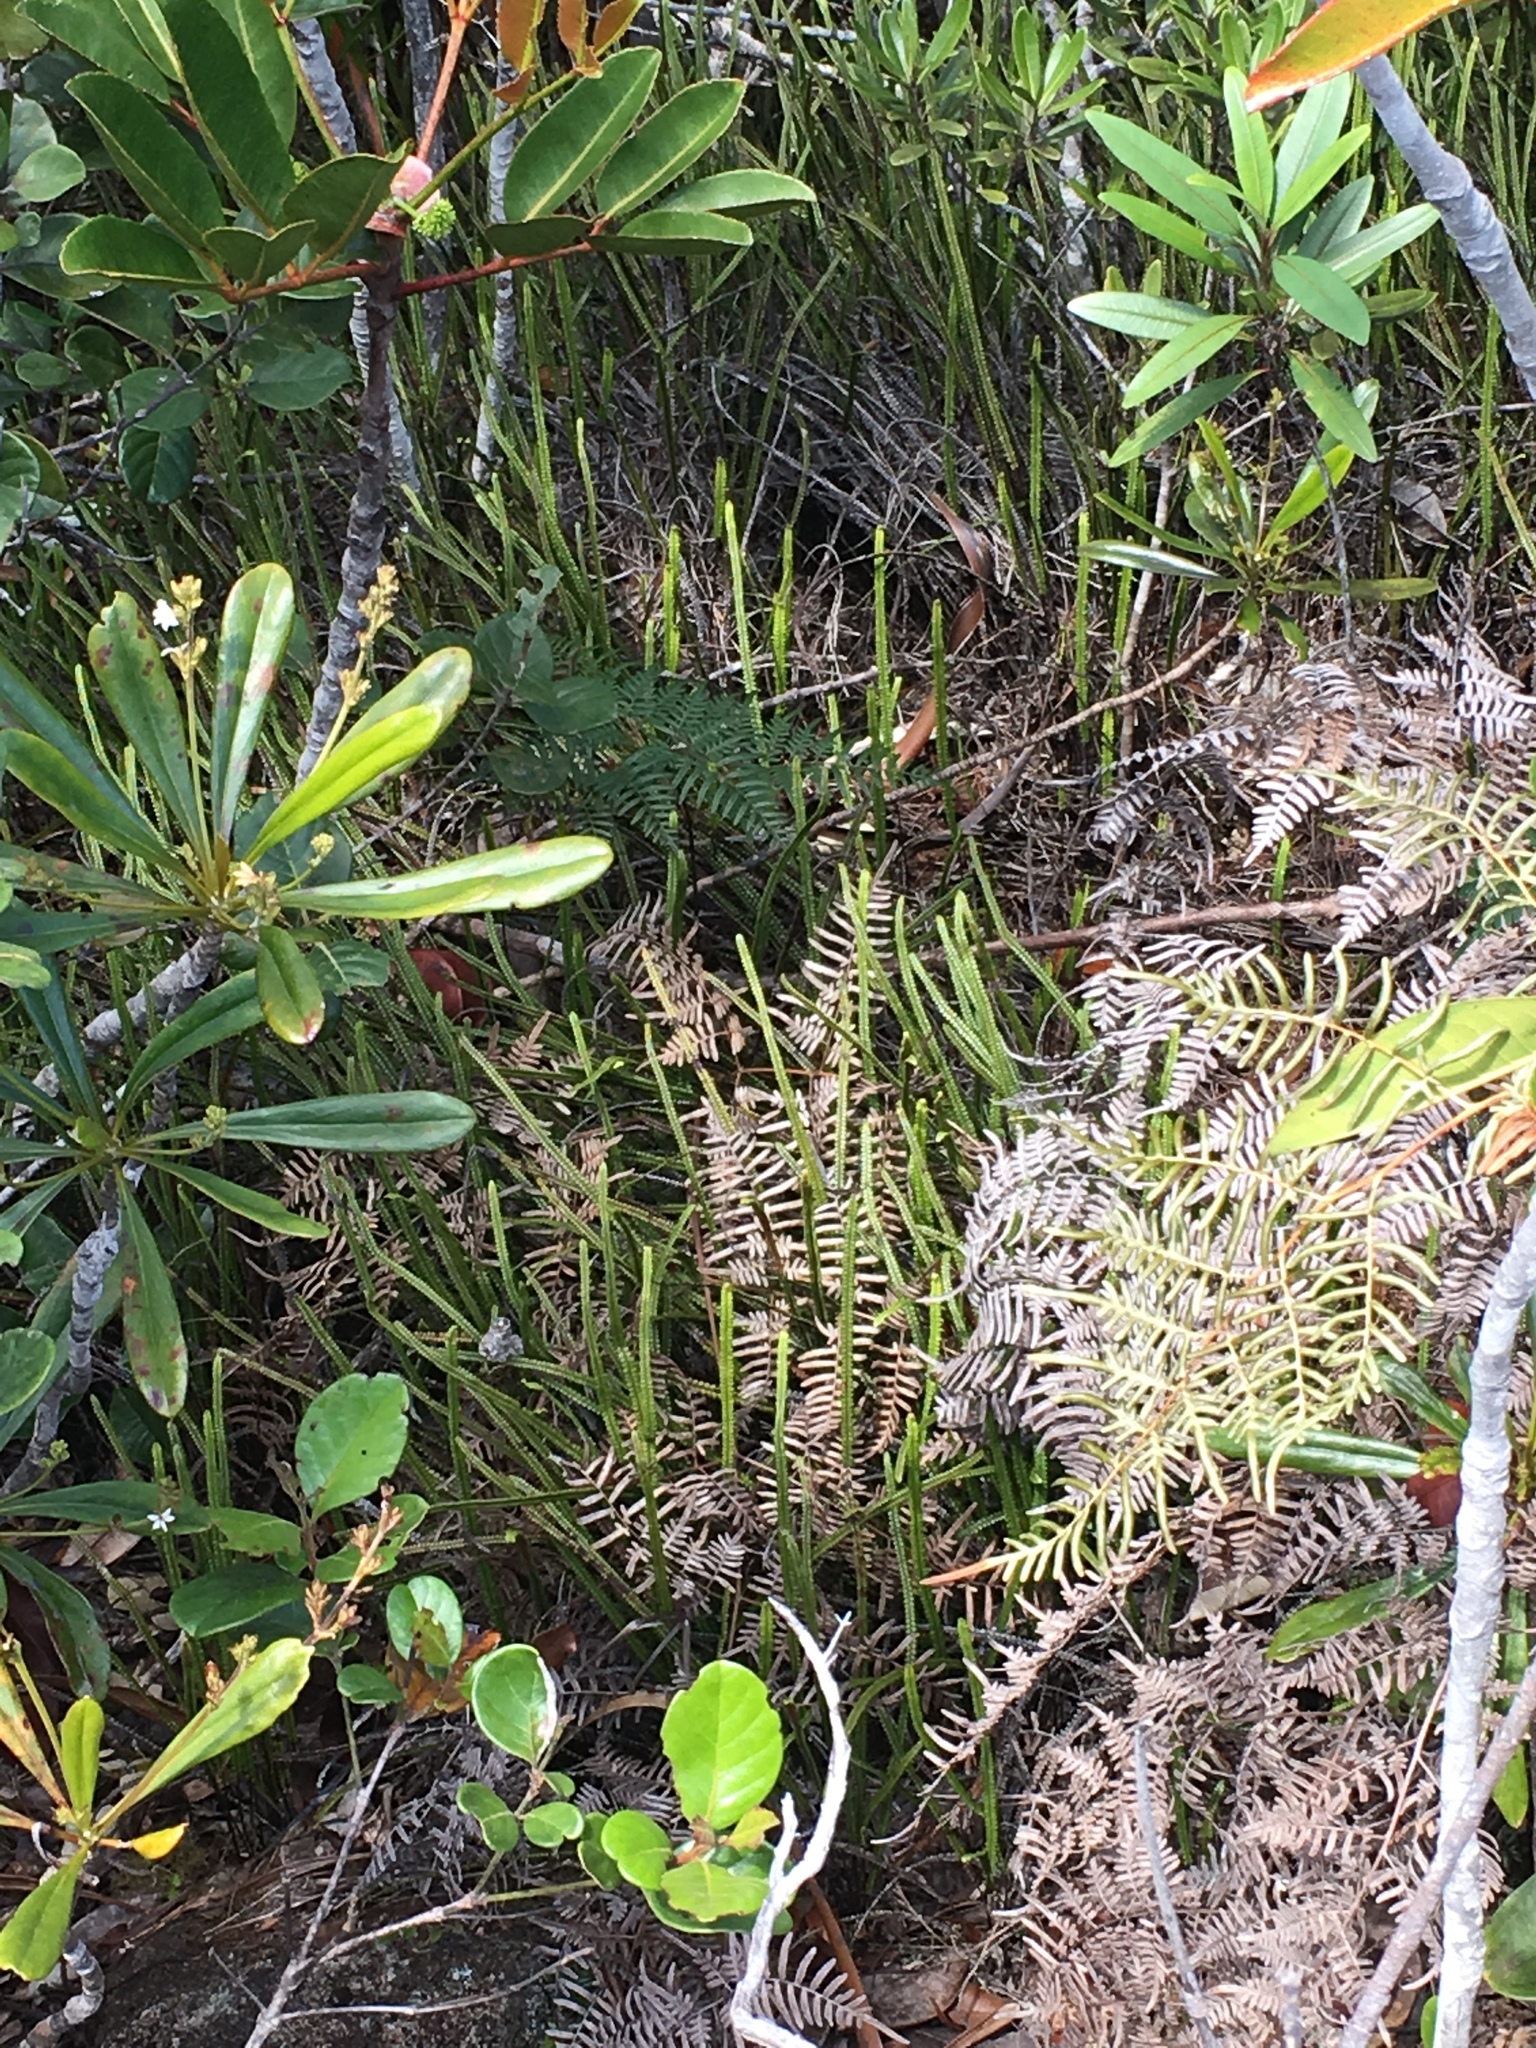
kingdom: Plantae
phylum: Tracheophyta
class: Polypodiopsida
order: Gleicheniales
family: Gleicheniaceae
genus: Stromatopteris
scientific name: Stromatopteris moniliformis
